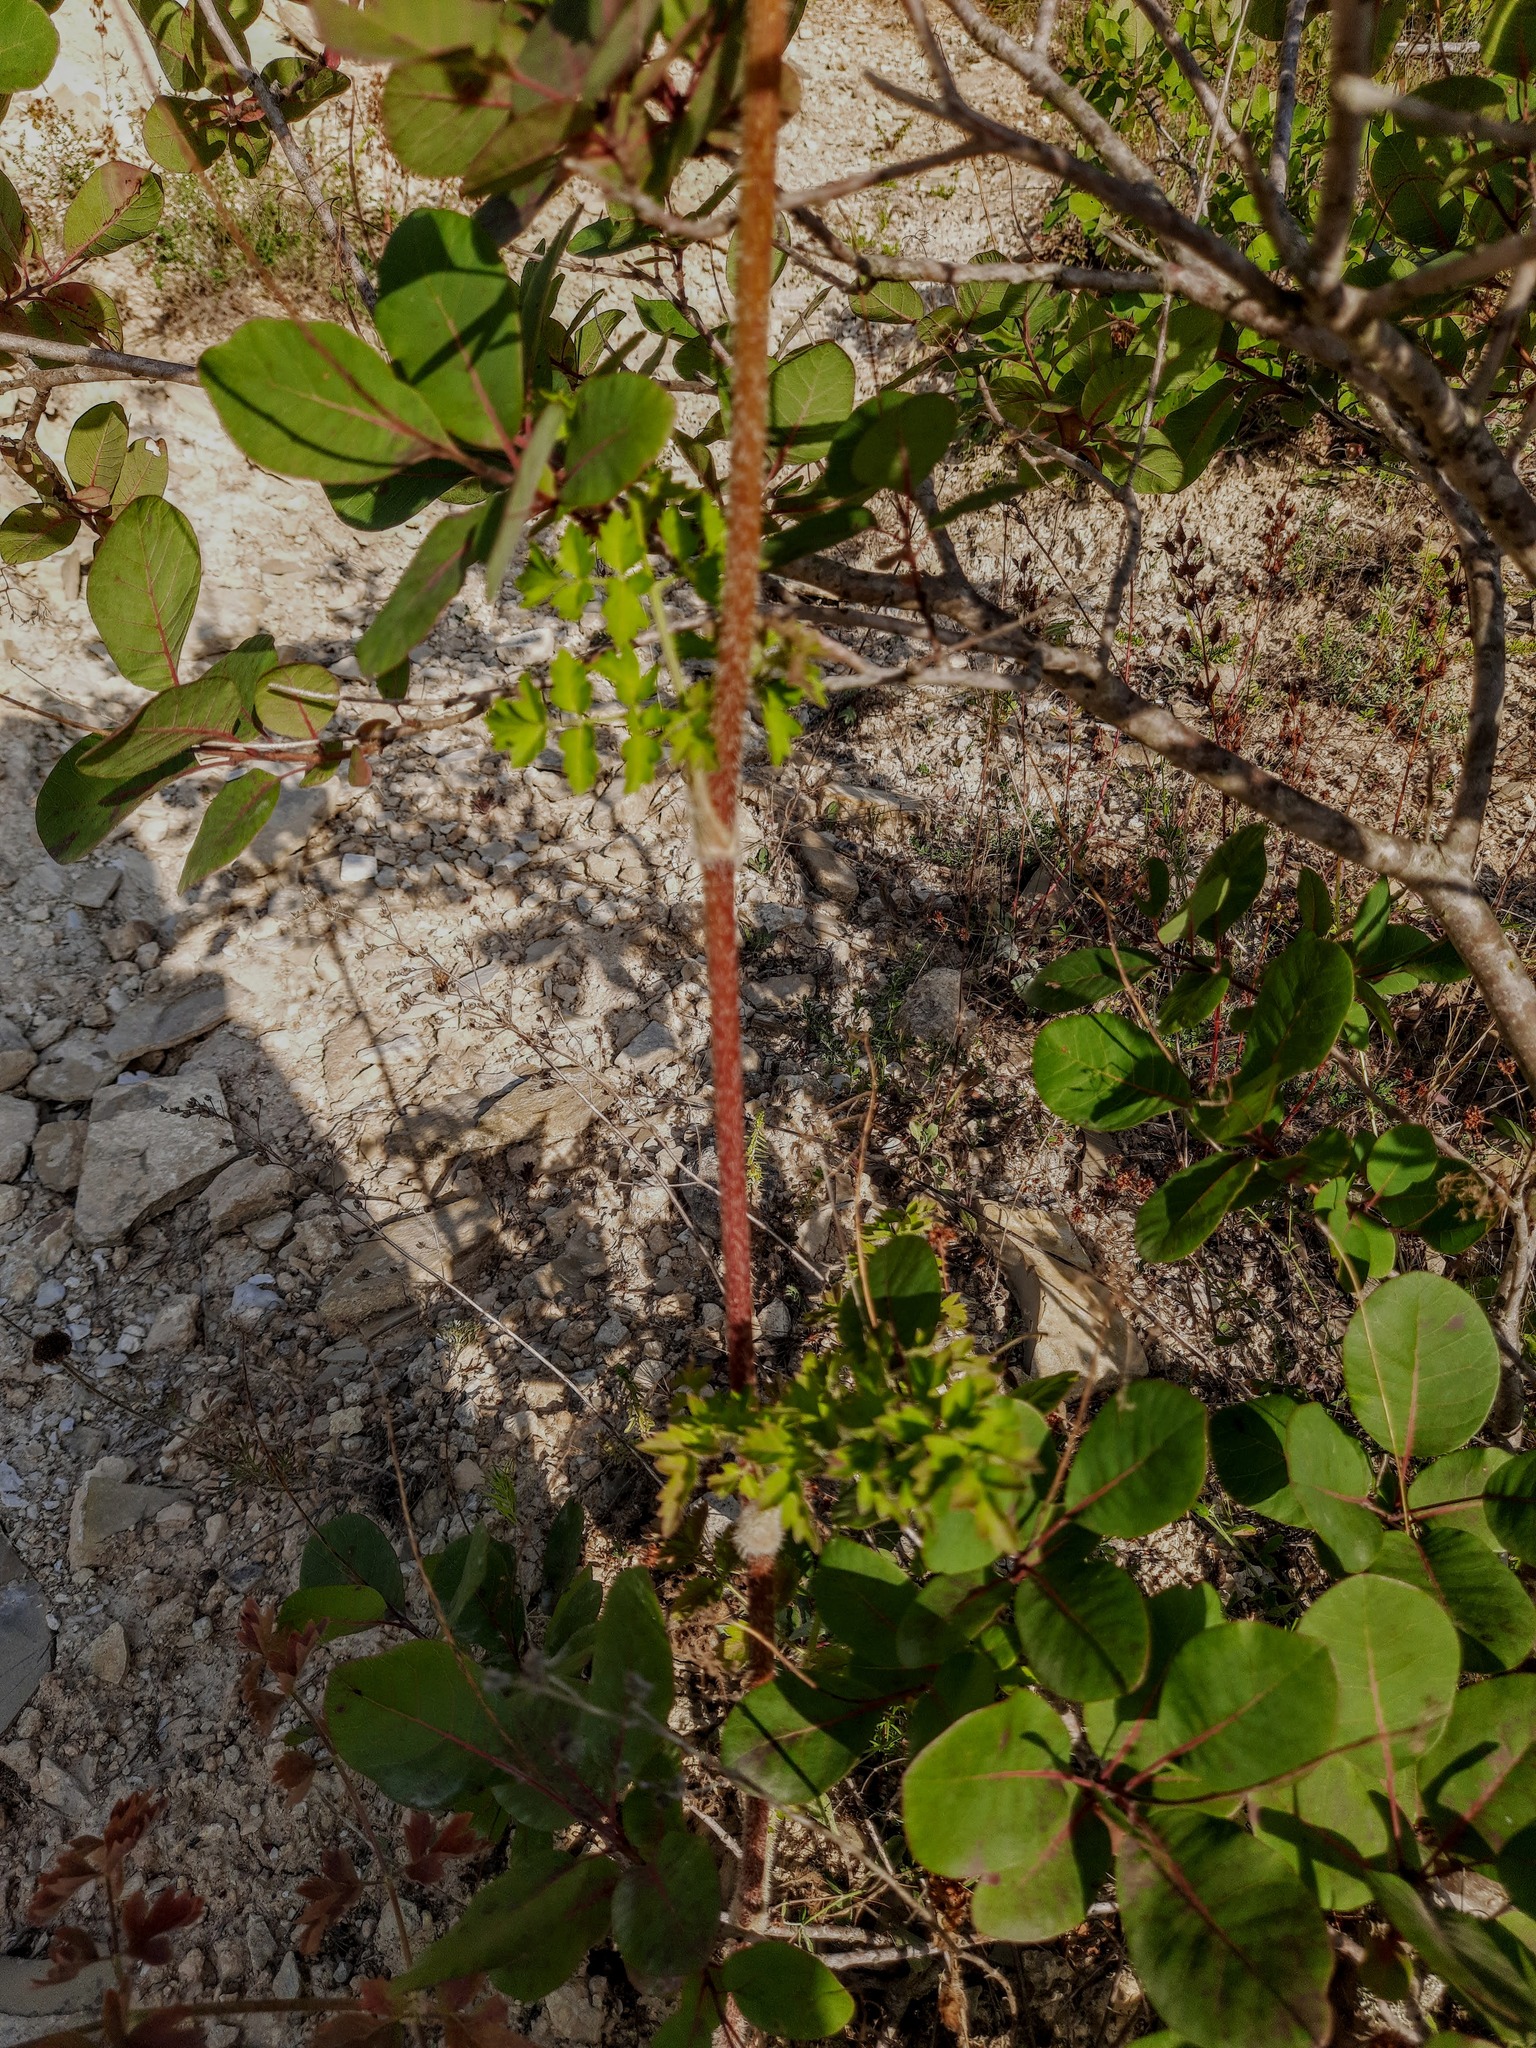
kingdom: Plantae
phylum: Tracheophyta
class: Magnoliopsida
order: Sapindales
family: Anacardiaceae
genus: Cotinus
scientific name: Cotinus coggygria
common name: Smoke-tree
